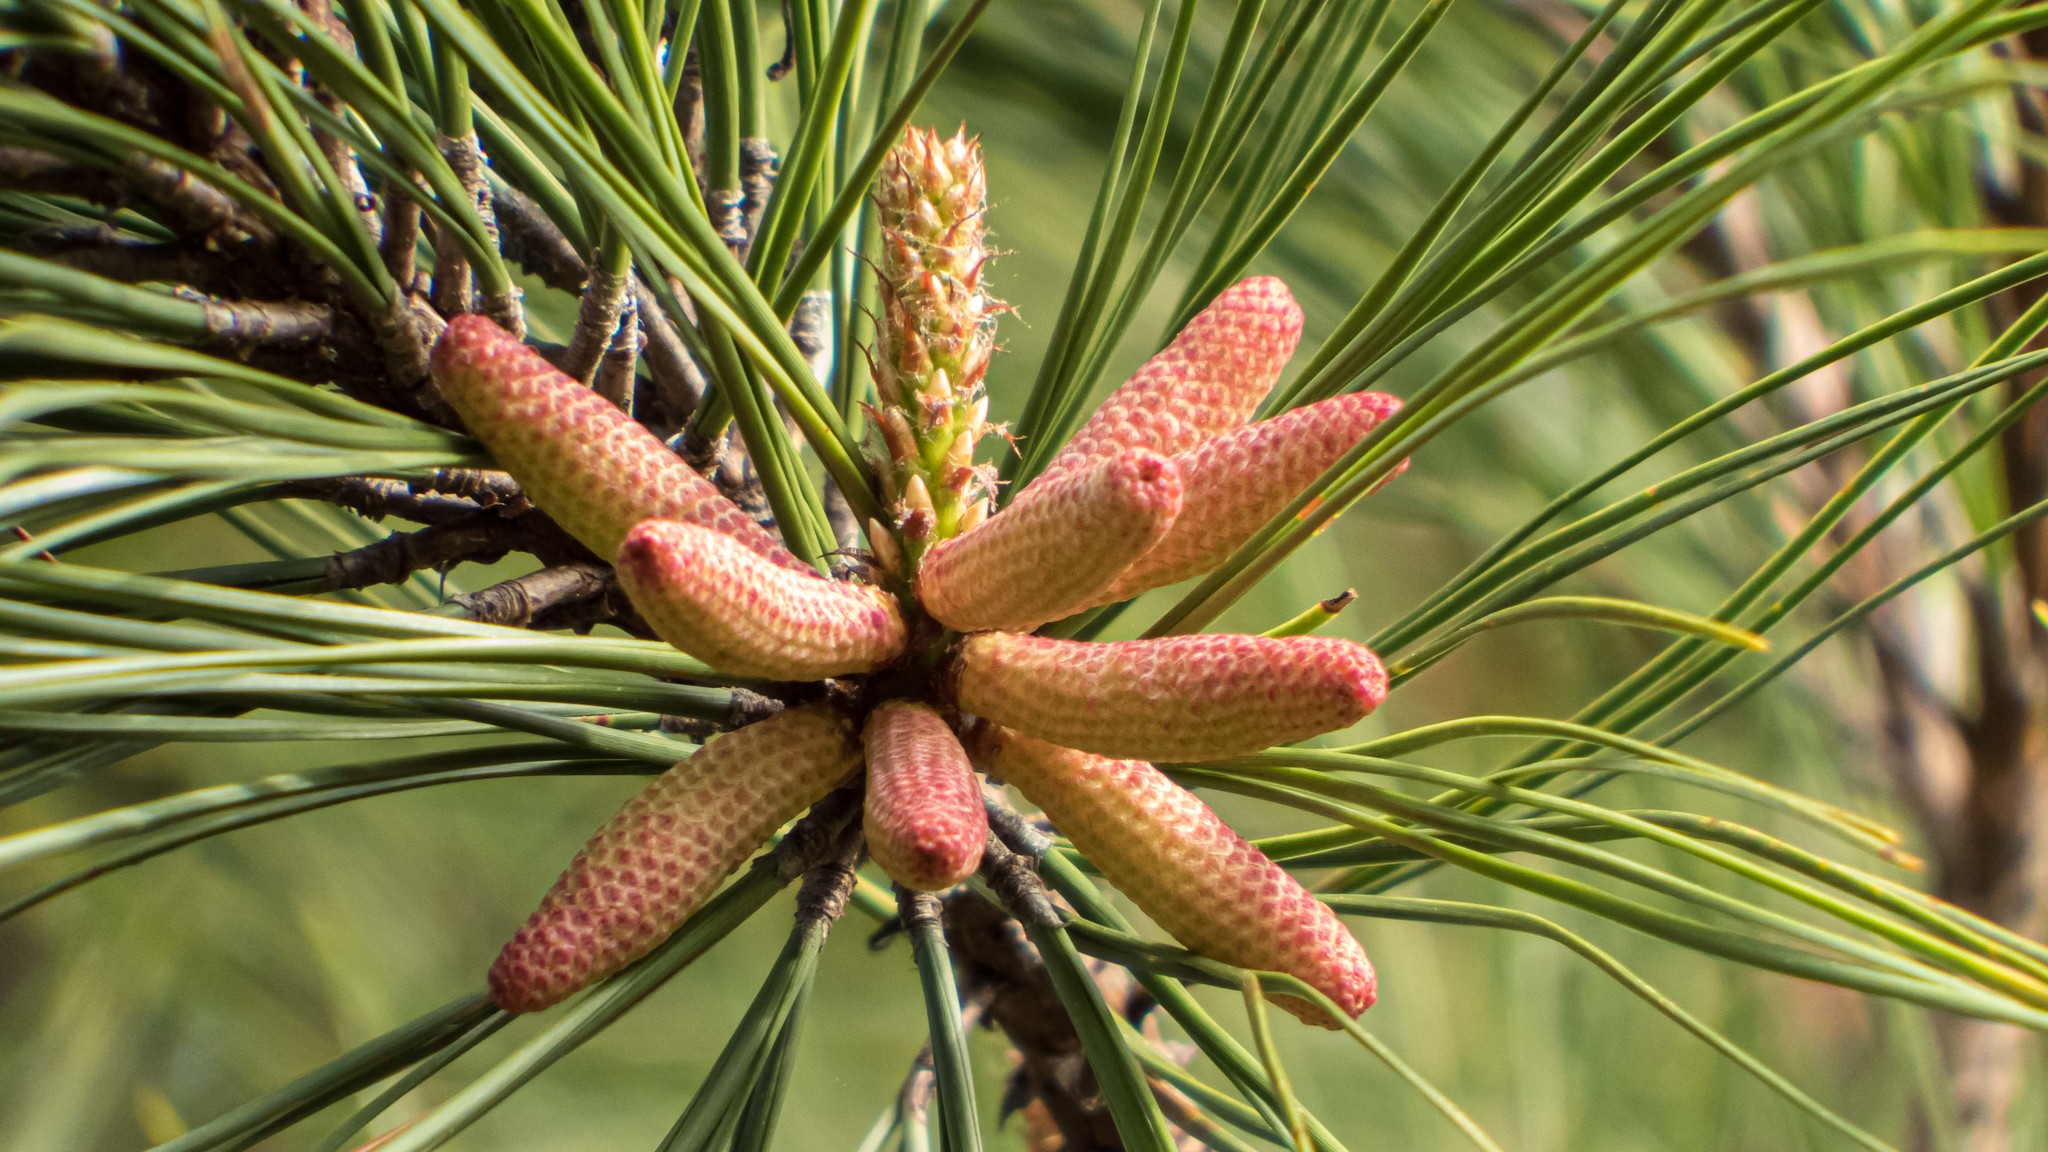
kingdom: Plantae
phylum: Tracheophyta
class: Pinopsida
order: Pinales
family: Pinaceae
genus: Pinus
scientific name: Pinus taeda
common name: Loblolly pine
